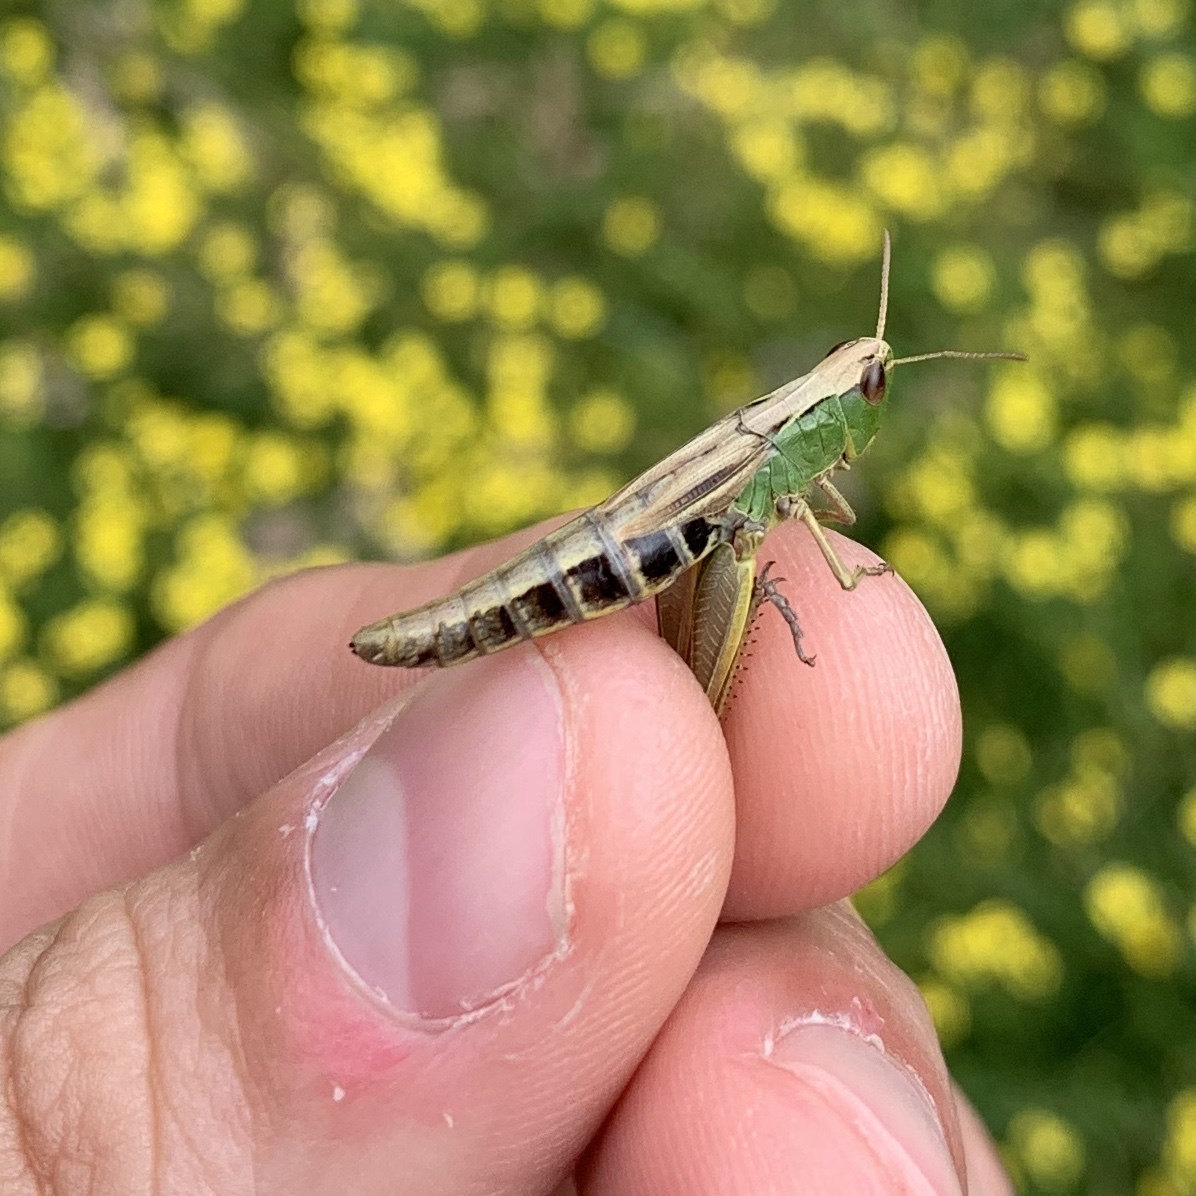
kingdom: Animalia
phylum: Arthropoda
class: Insecta
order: Orthoptera
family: Acrididae
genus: Pseudochorthippus
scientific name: Pseudochorthippus parallelus
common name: Meadow grasshopper
